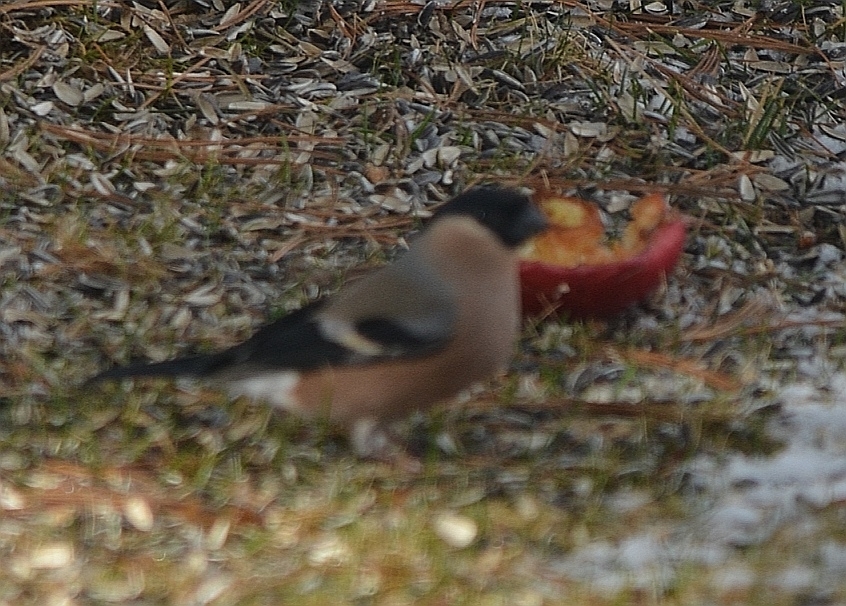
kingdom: Animalia
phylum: Chordata
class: Aves
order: Passeriformes
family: Fringillidae
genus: Pyrrhula
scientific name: Pyrrhula pyrrhula
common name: Eurasian bullfinch
